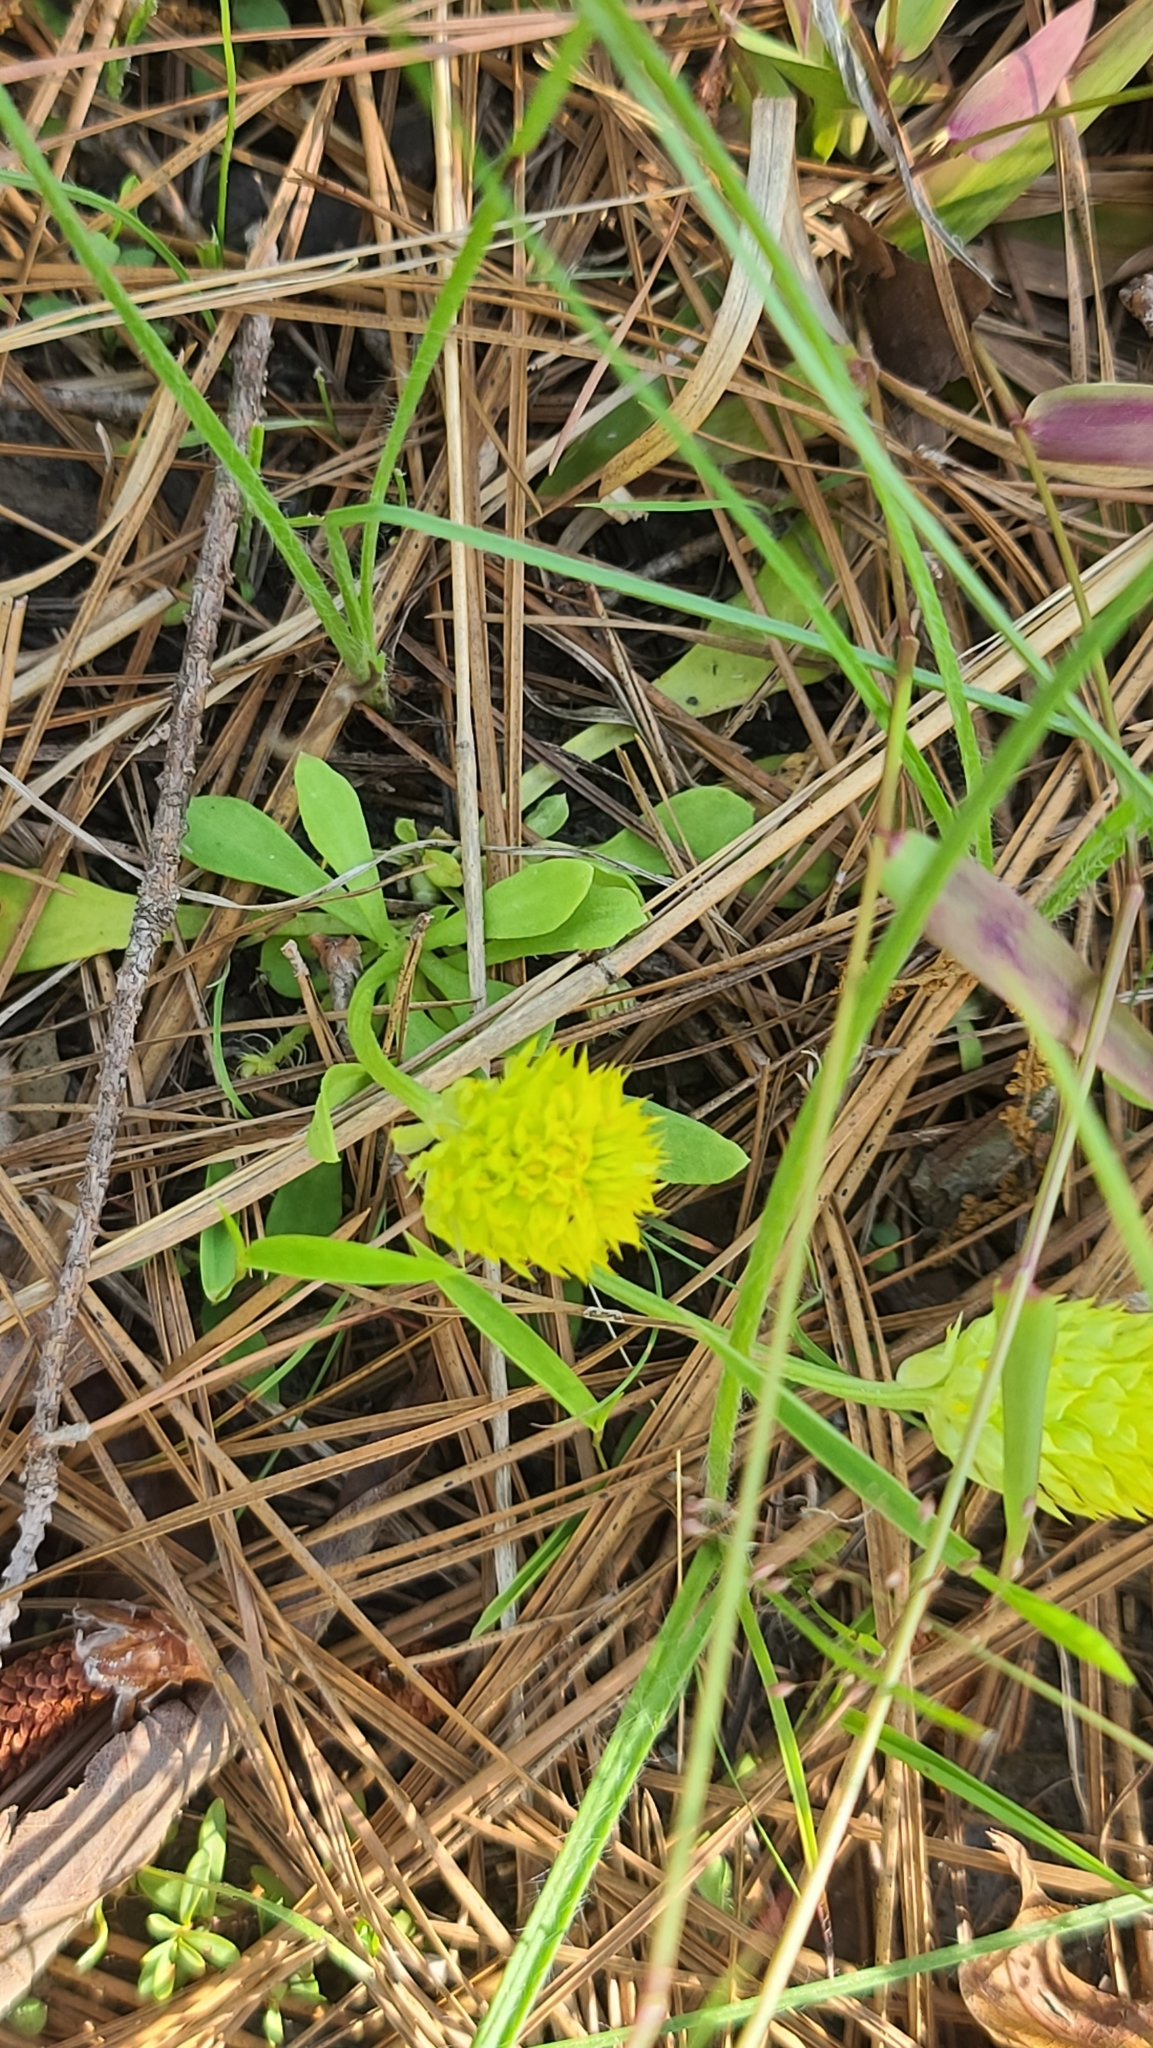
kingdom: Plantae
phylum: Tracheophyta
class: Magnoliopsida
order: Fabales
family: Polygalaceae
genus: Polygala
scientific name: Polygala nana
